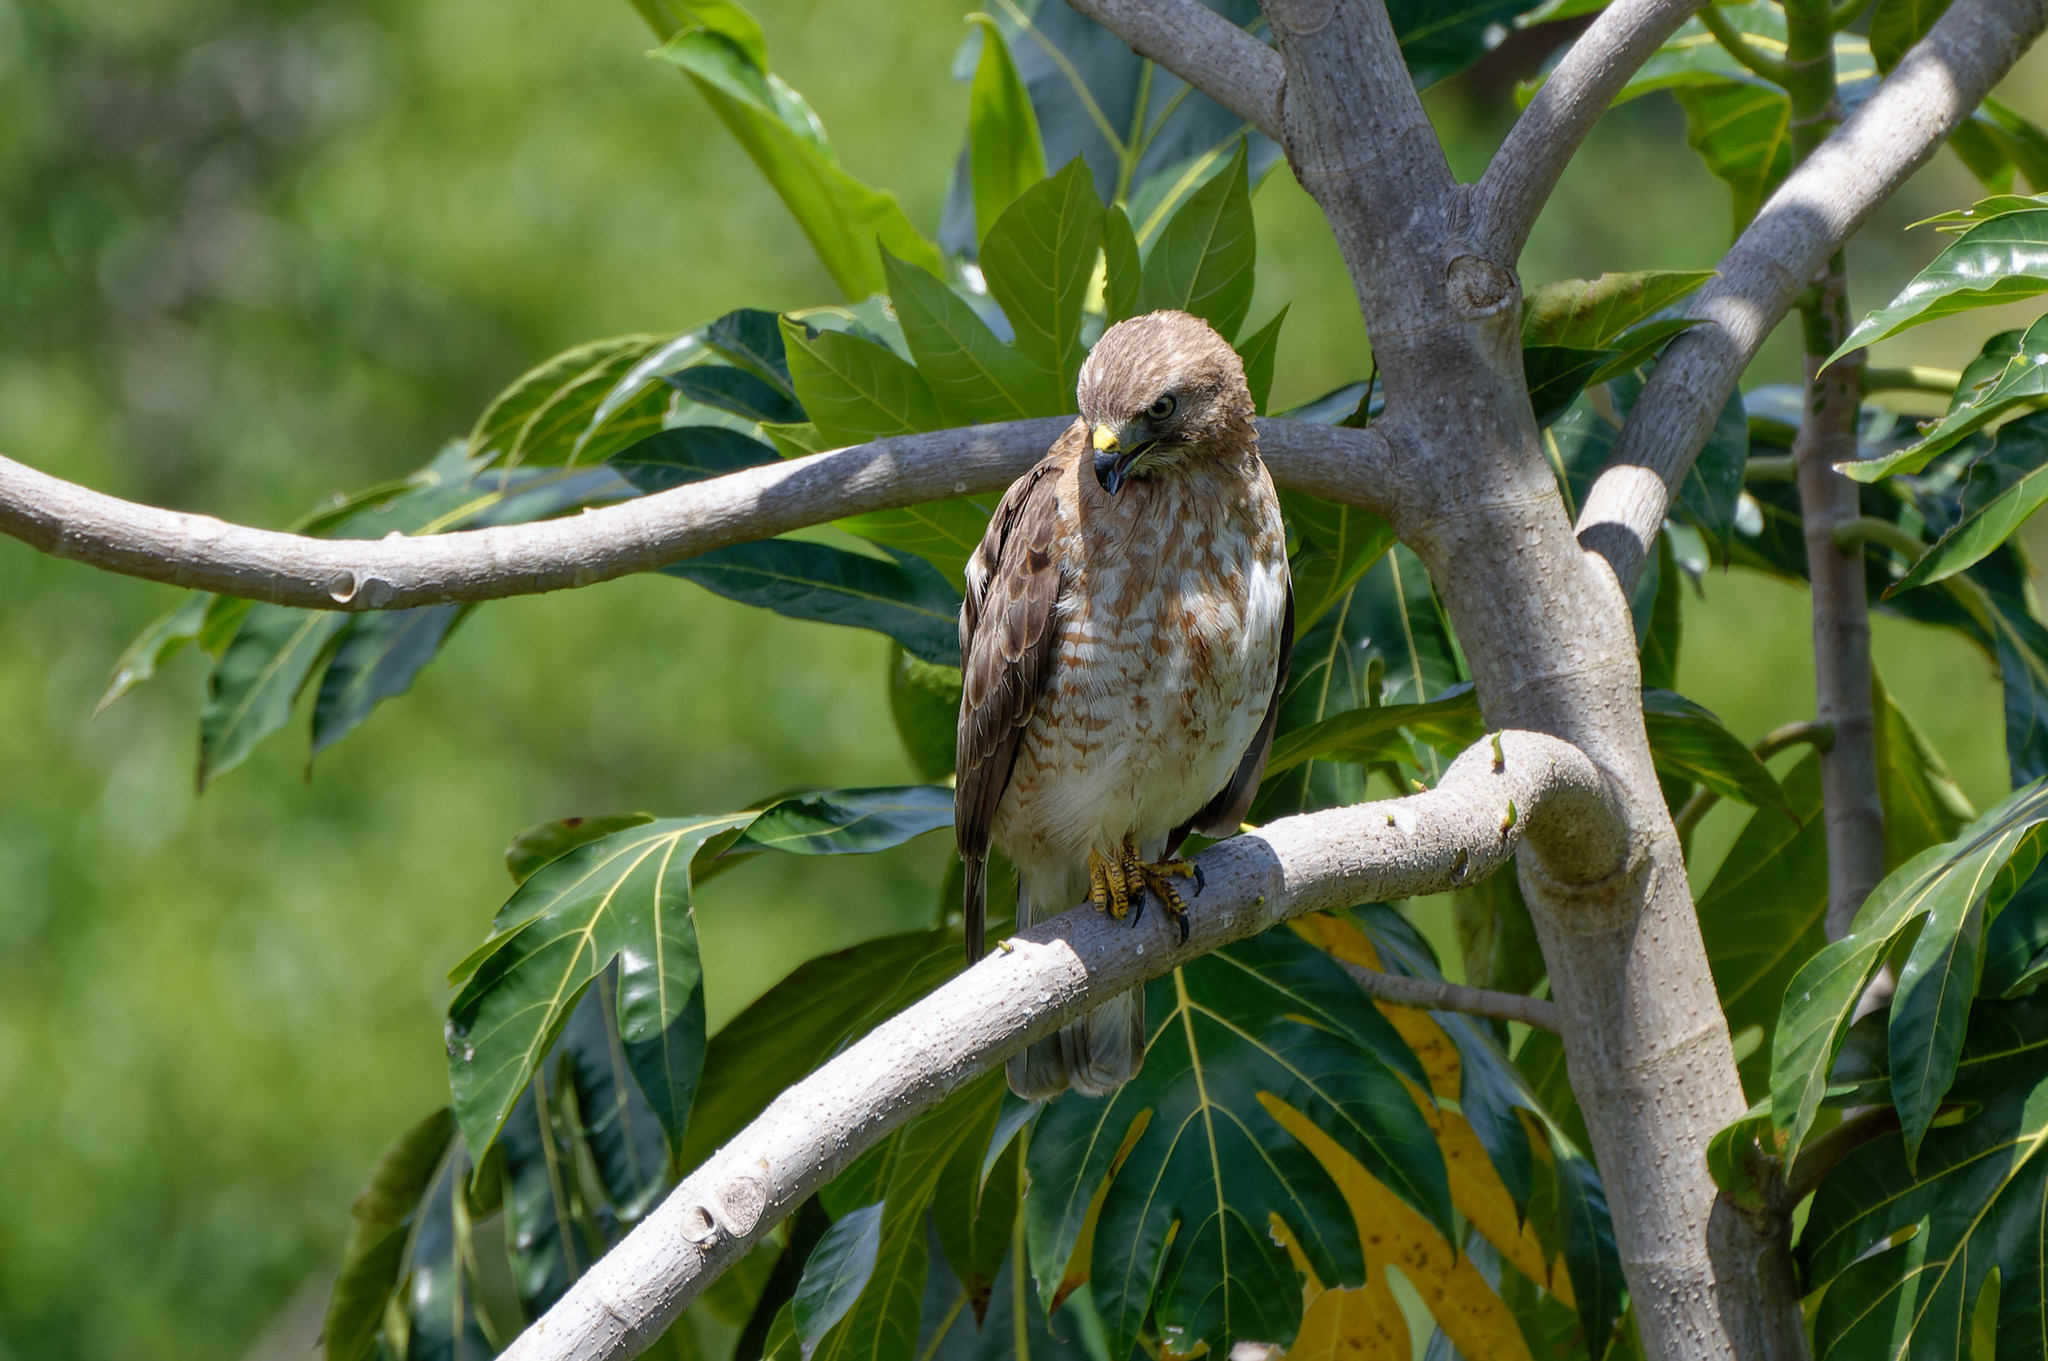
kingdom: Animalia
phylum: Chordata
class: Aves
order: Accipitriformes
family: Accipitridae
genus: Buteo
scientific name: Buteo platypterus
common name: Broad-winged hawk
